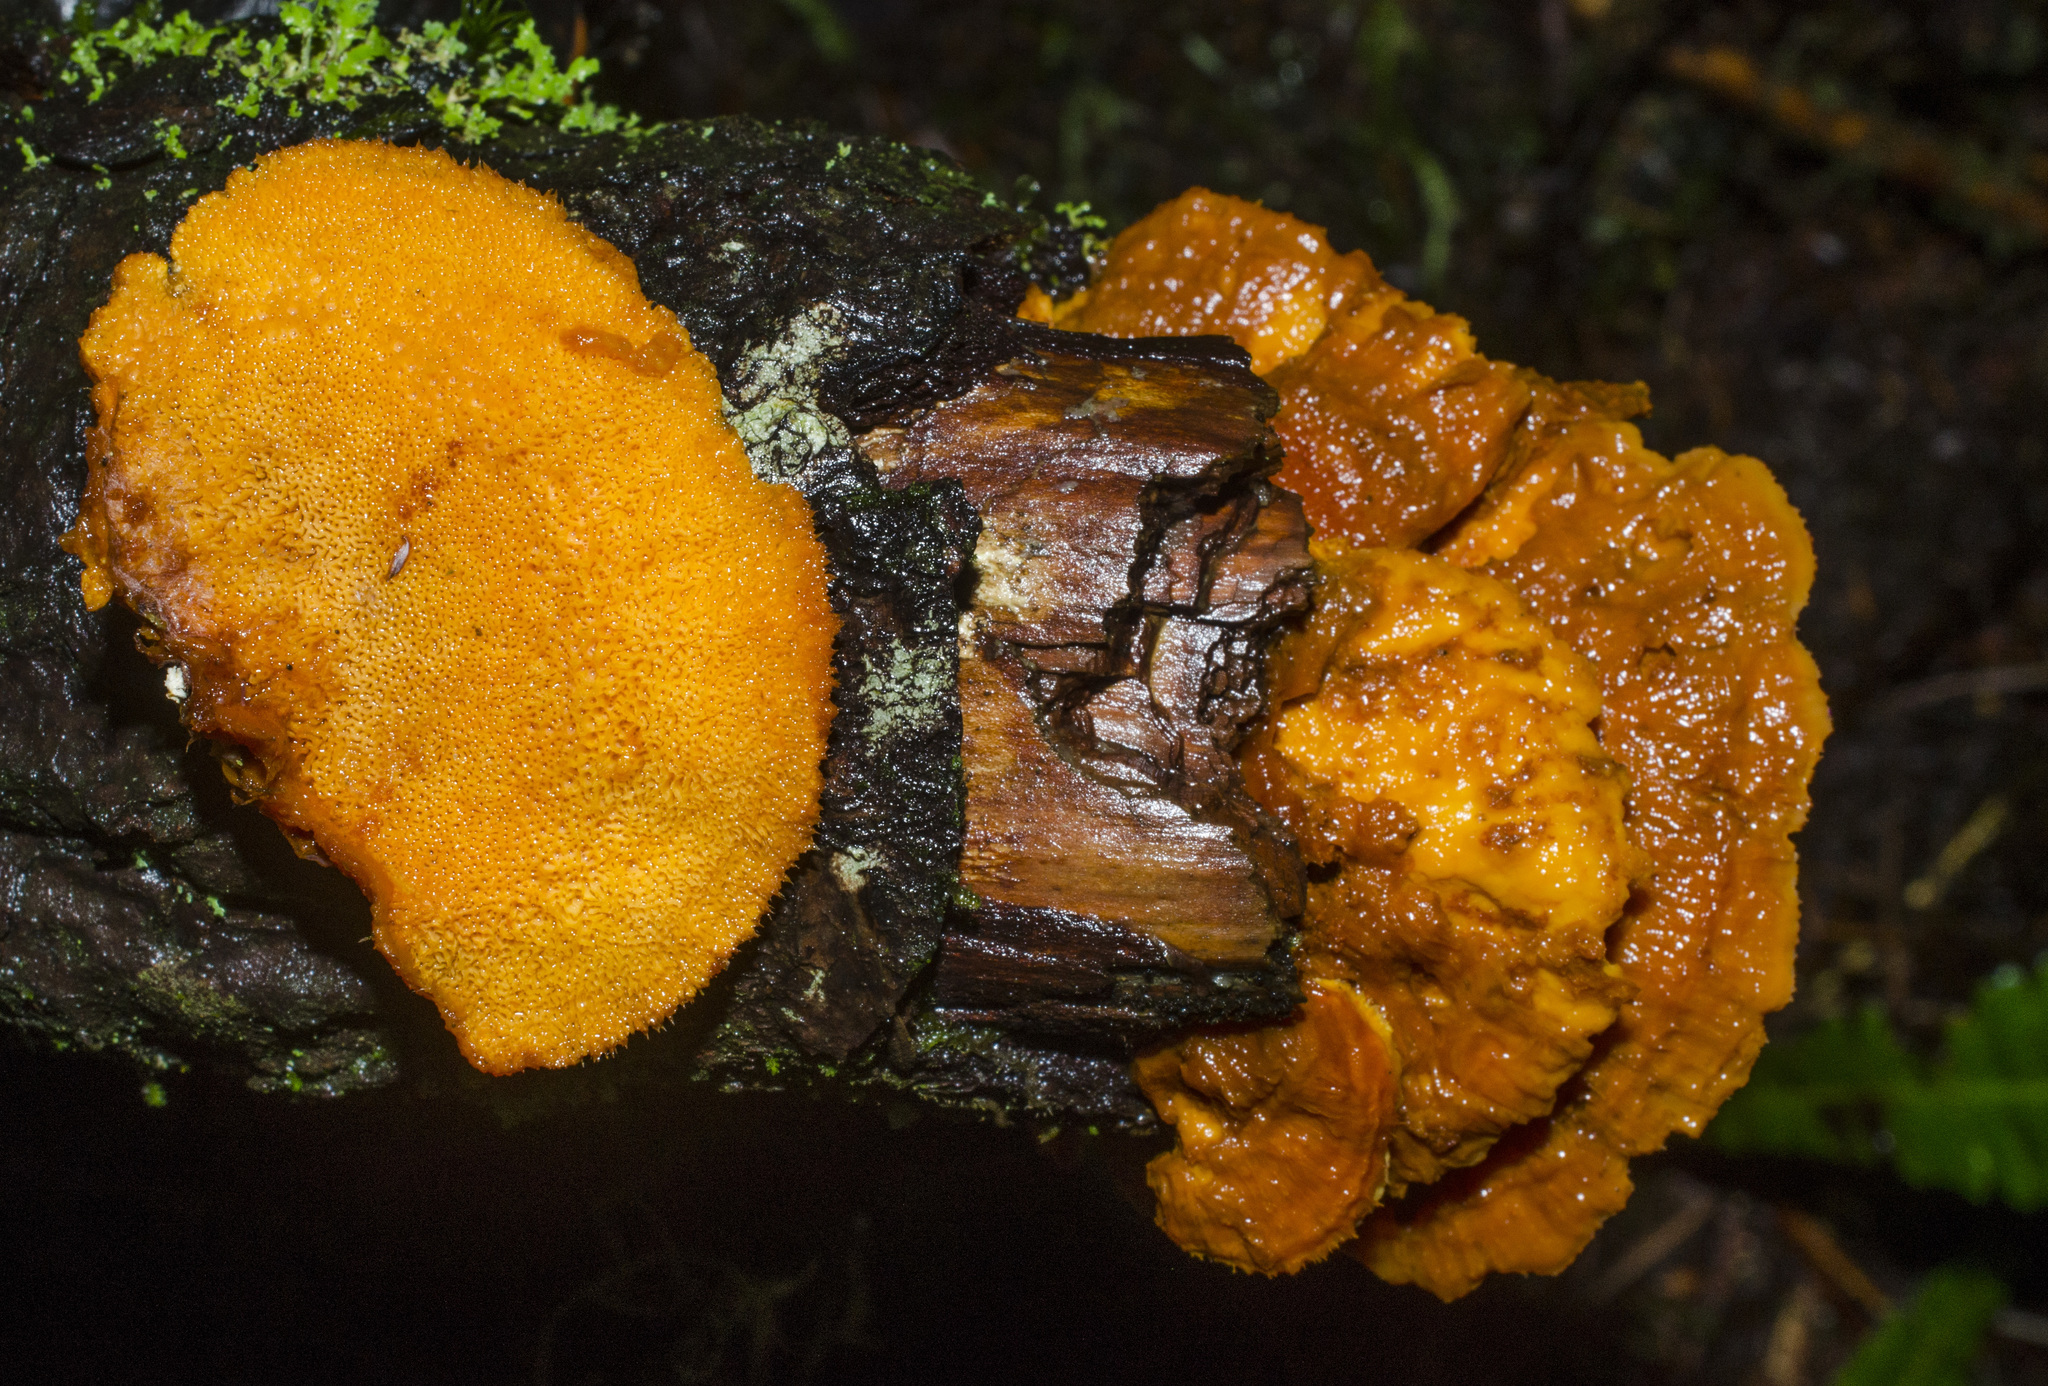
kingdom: Fungi
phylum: Basidiomycota
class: Agaricomycetes
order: Polyporales
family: Pycnoporellaceae
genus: Pycnoporellus
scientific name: Pycnoporellus fulgens
